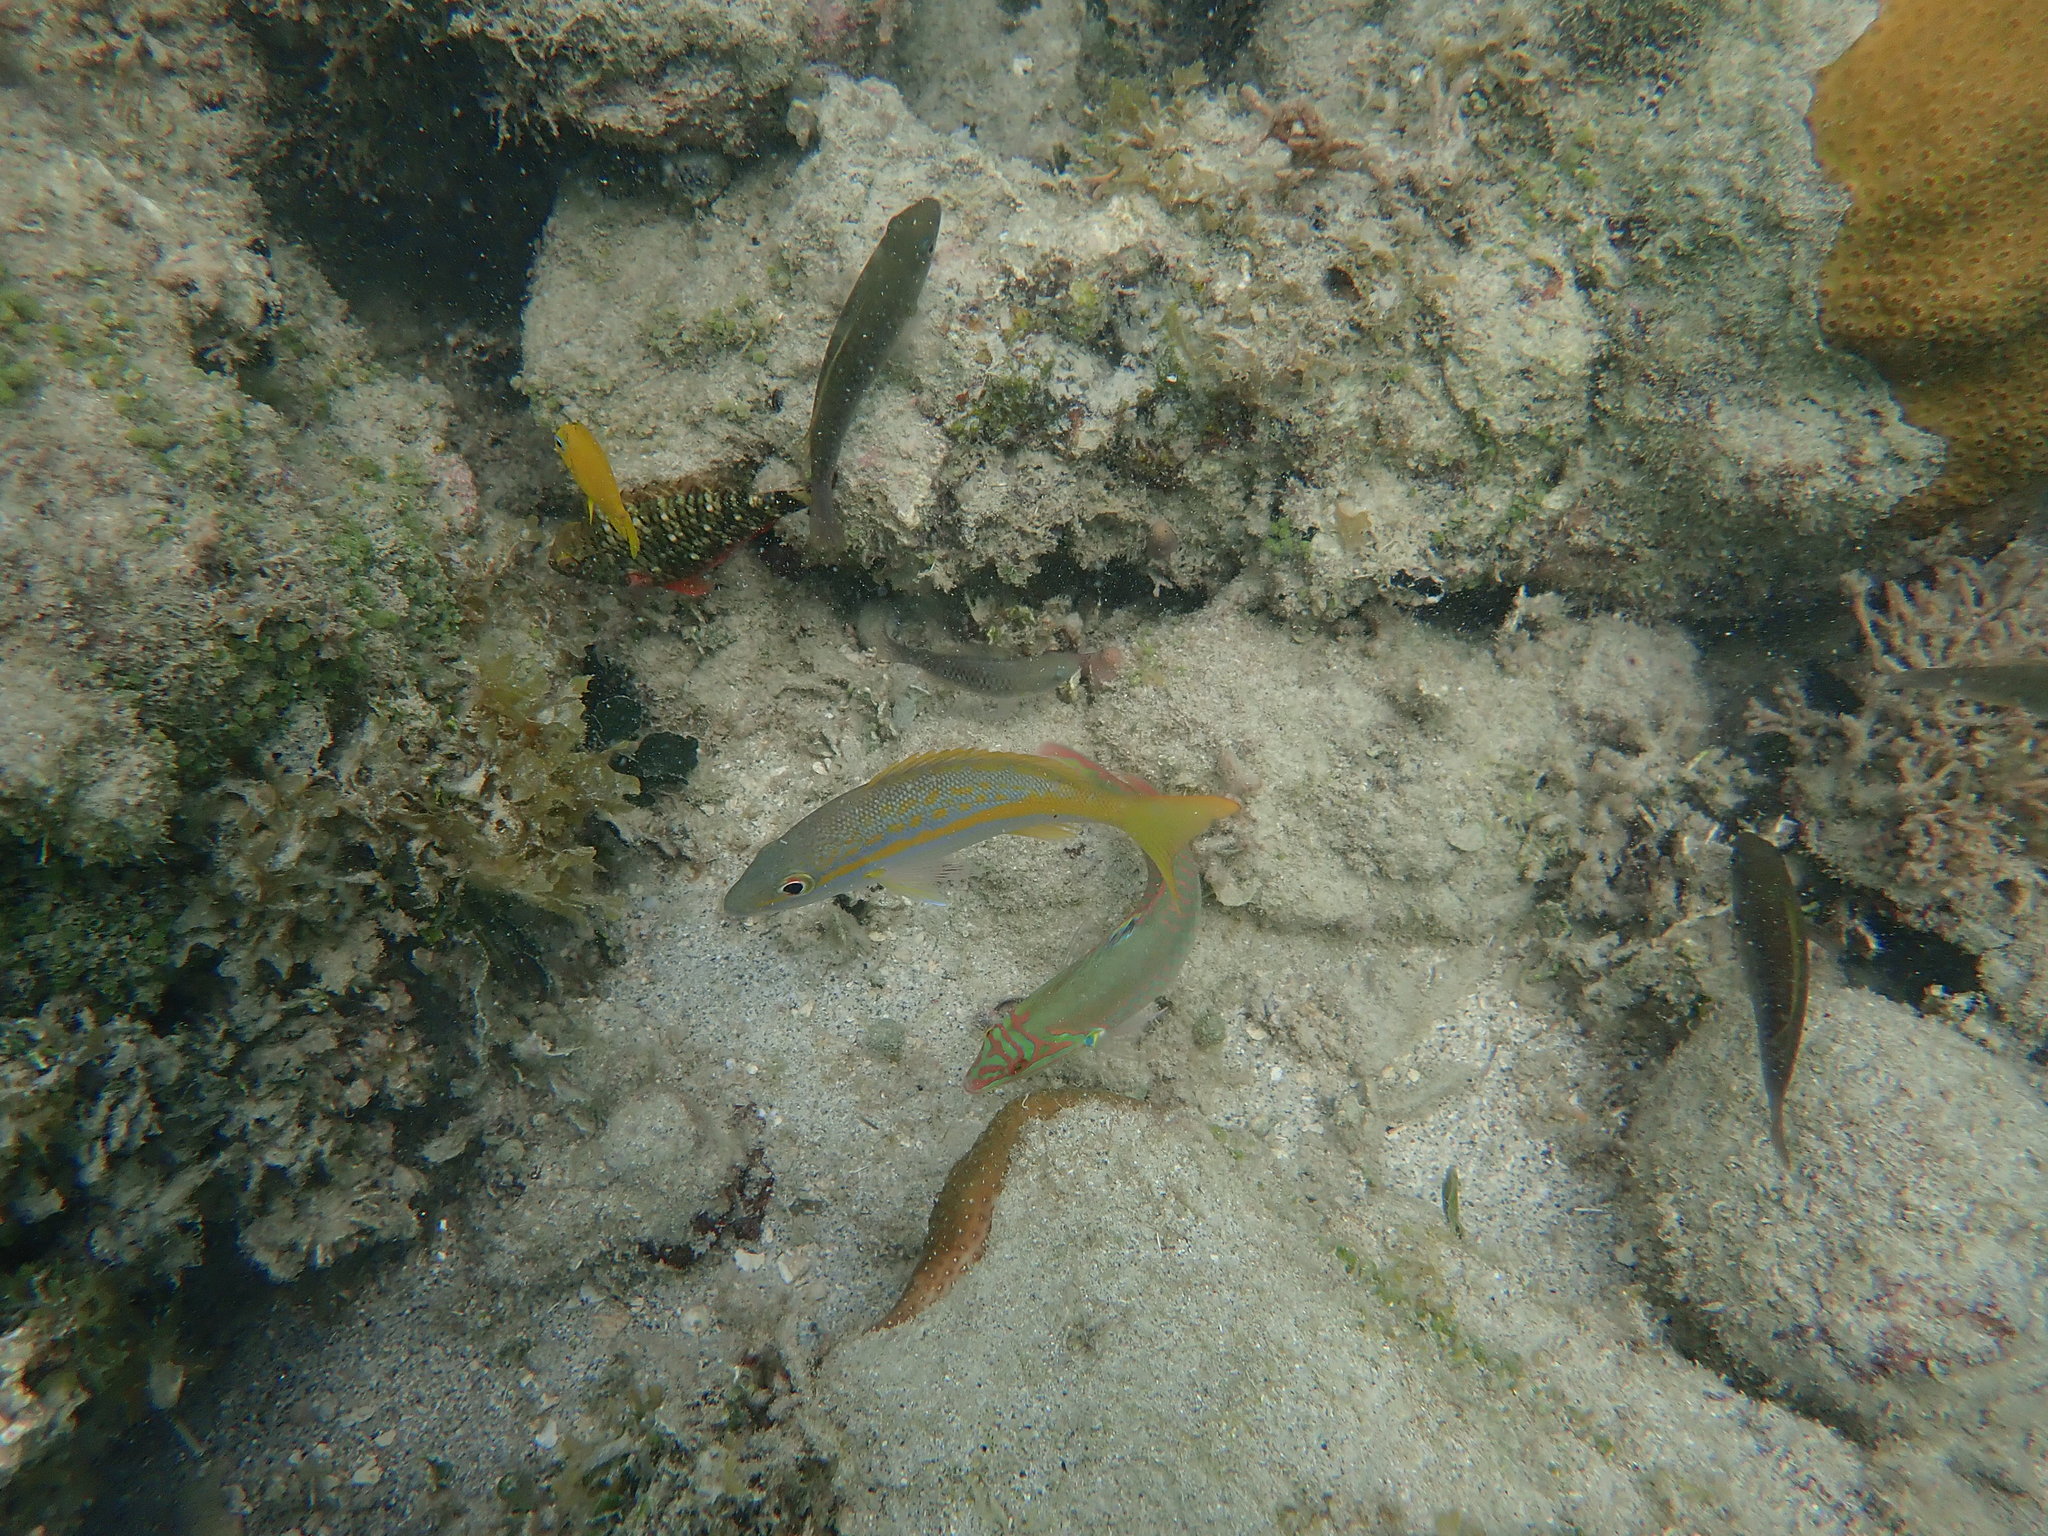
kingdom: Animalia
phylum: Chordata
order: Perciformes
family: Scaridae
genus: Sparisoma
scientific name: Sparisoma viride
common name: Stoplight parrotfish
